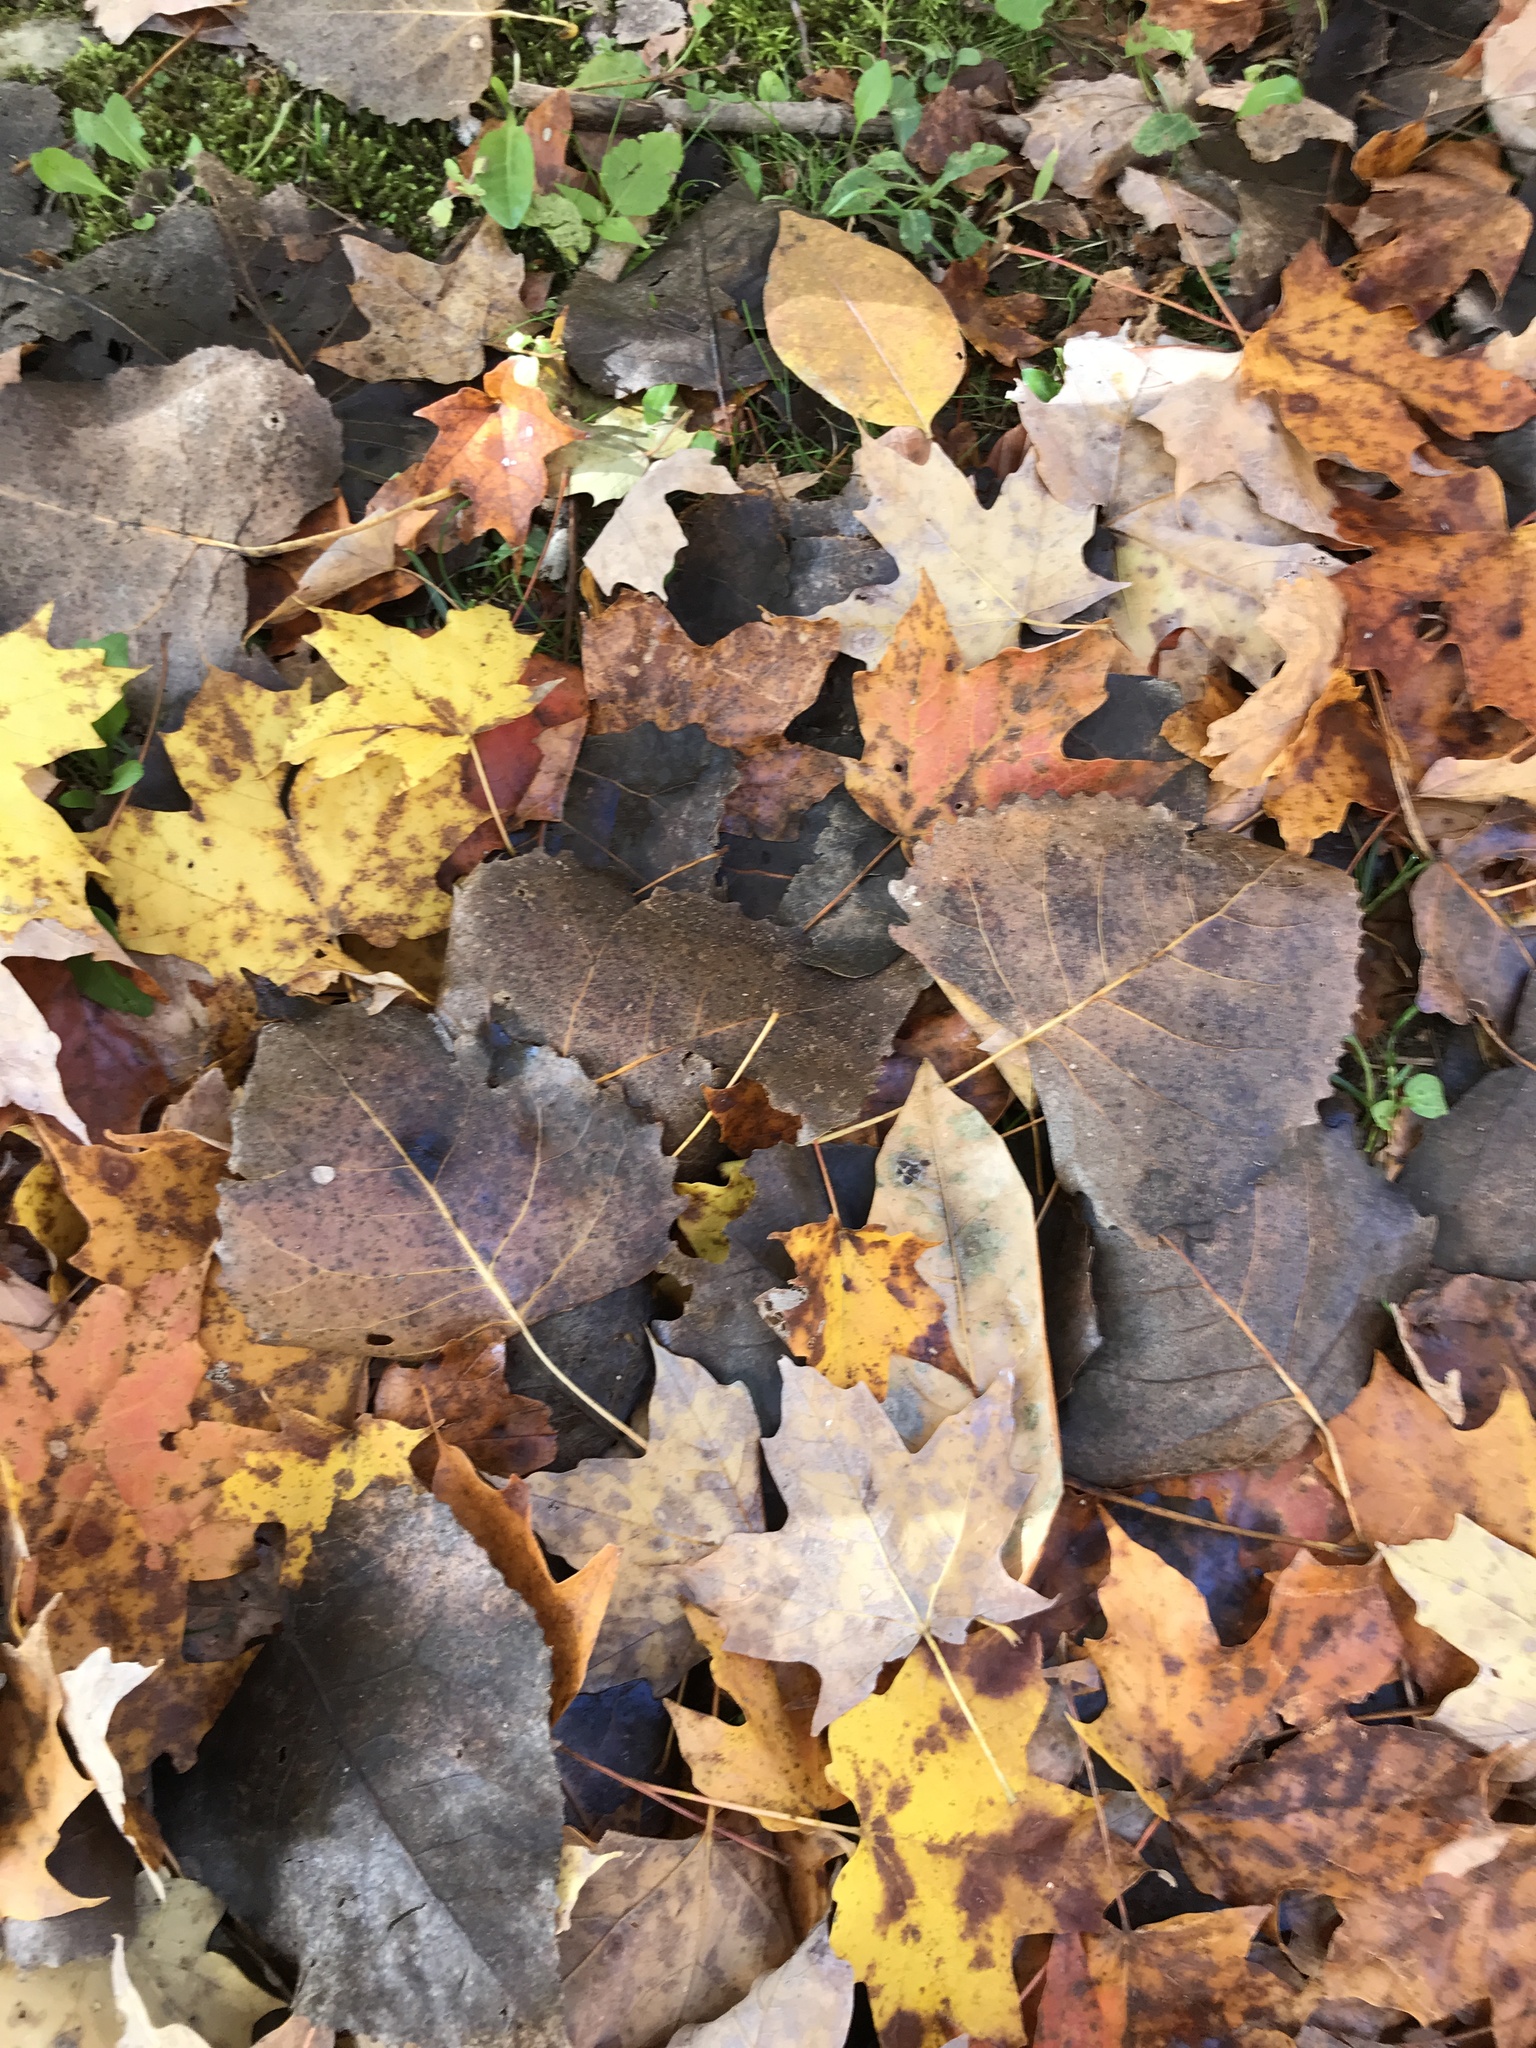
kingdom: Plantae
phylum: Tracheophyta
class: Magnoliopsida
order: Malpighiales
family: Salicaceae
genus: Populus
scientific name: Populus deltoides
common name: Eastern cottonwood
